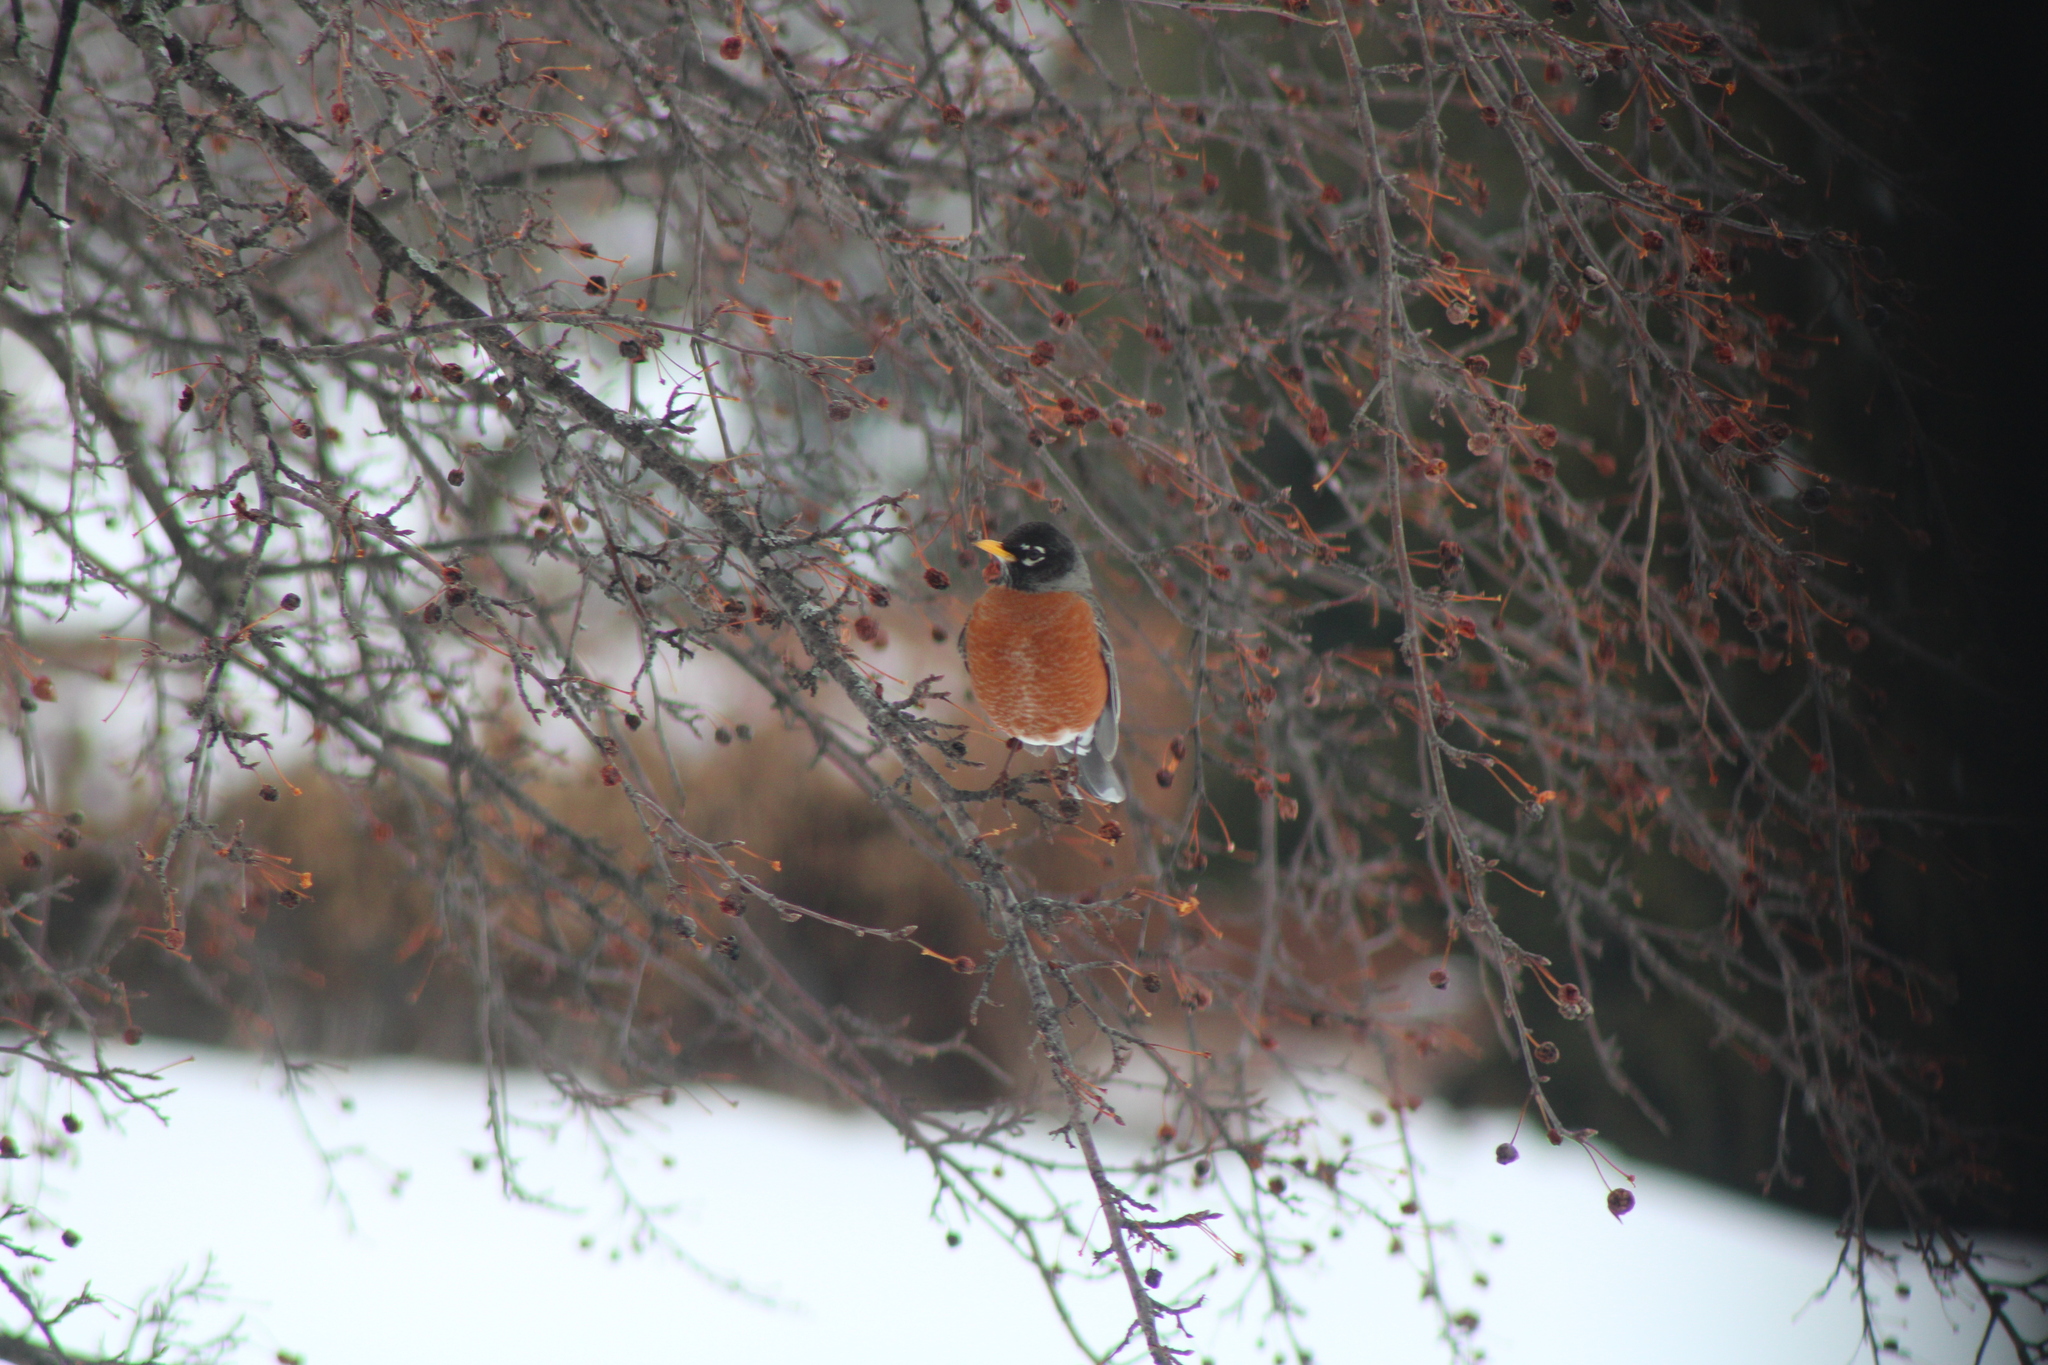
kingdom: Animalia
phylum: Chordata
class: Aves
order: Passeriformes
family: Turdidae
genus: Turdus
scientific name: Turdus migratorius
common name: American robin
